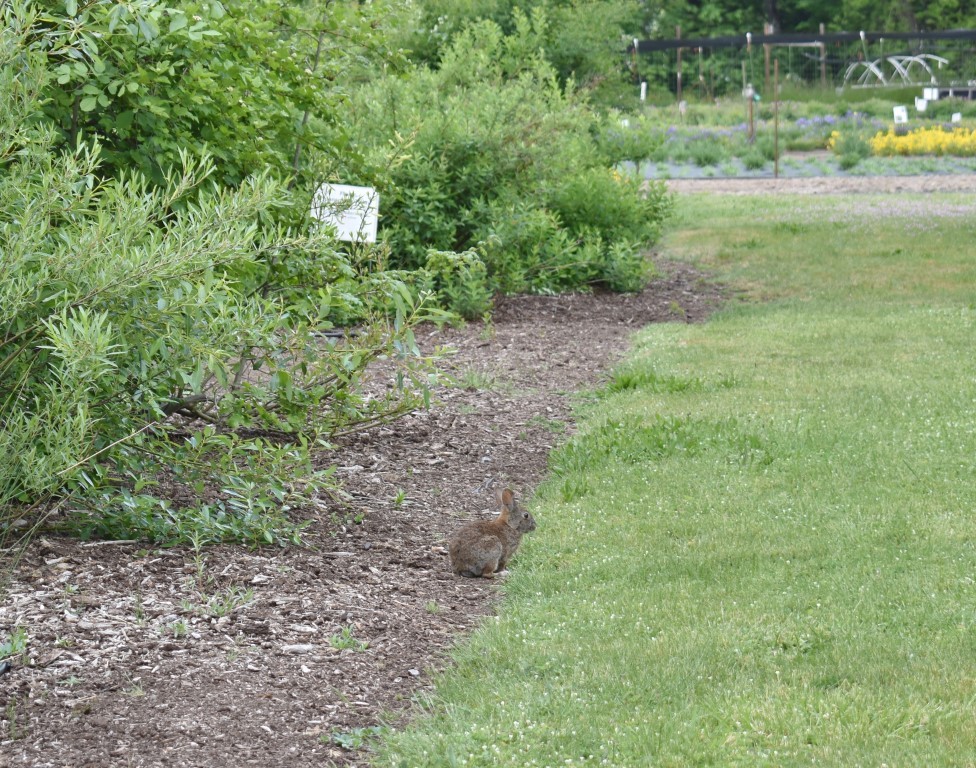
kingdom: Animalia
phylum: Chordata
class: Mammalia
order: Lagomorpha
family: Leporidae
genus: Sylvilagus
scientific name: Sylvilagus
